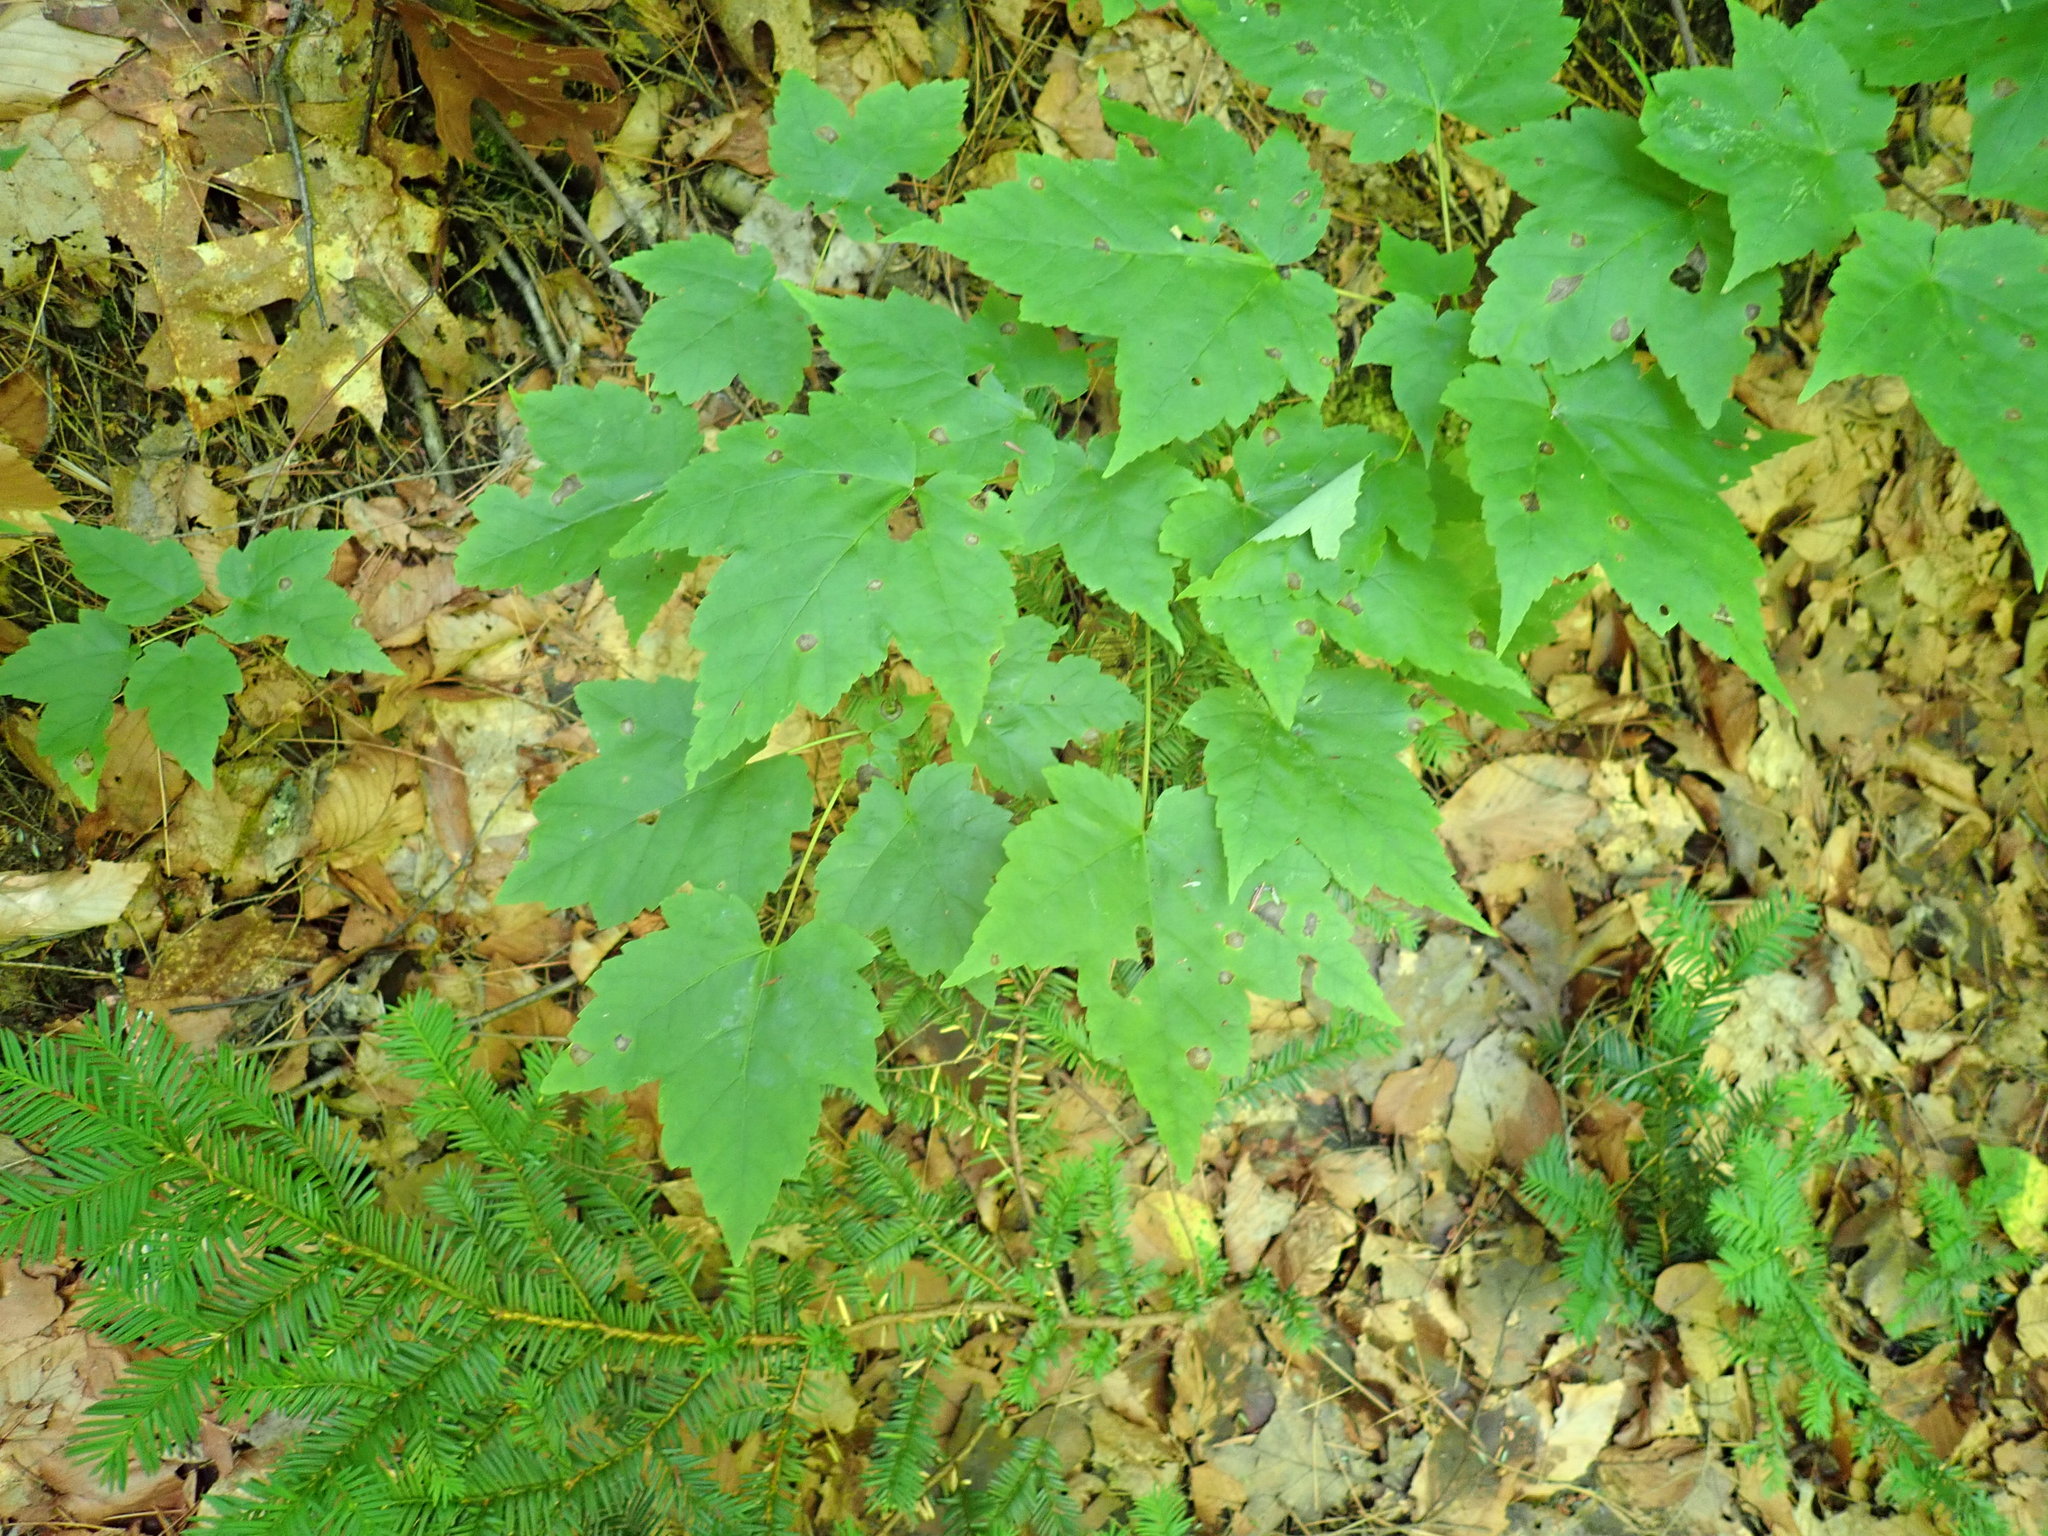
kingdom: Plantae
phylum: Tracheophyta
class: Magnoliopsida
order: Sapindales
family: Sapindaceae
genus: Acer
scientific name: Acer rubrum
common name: Red maple
